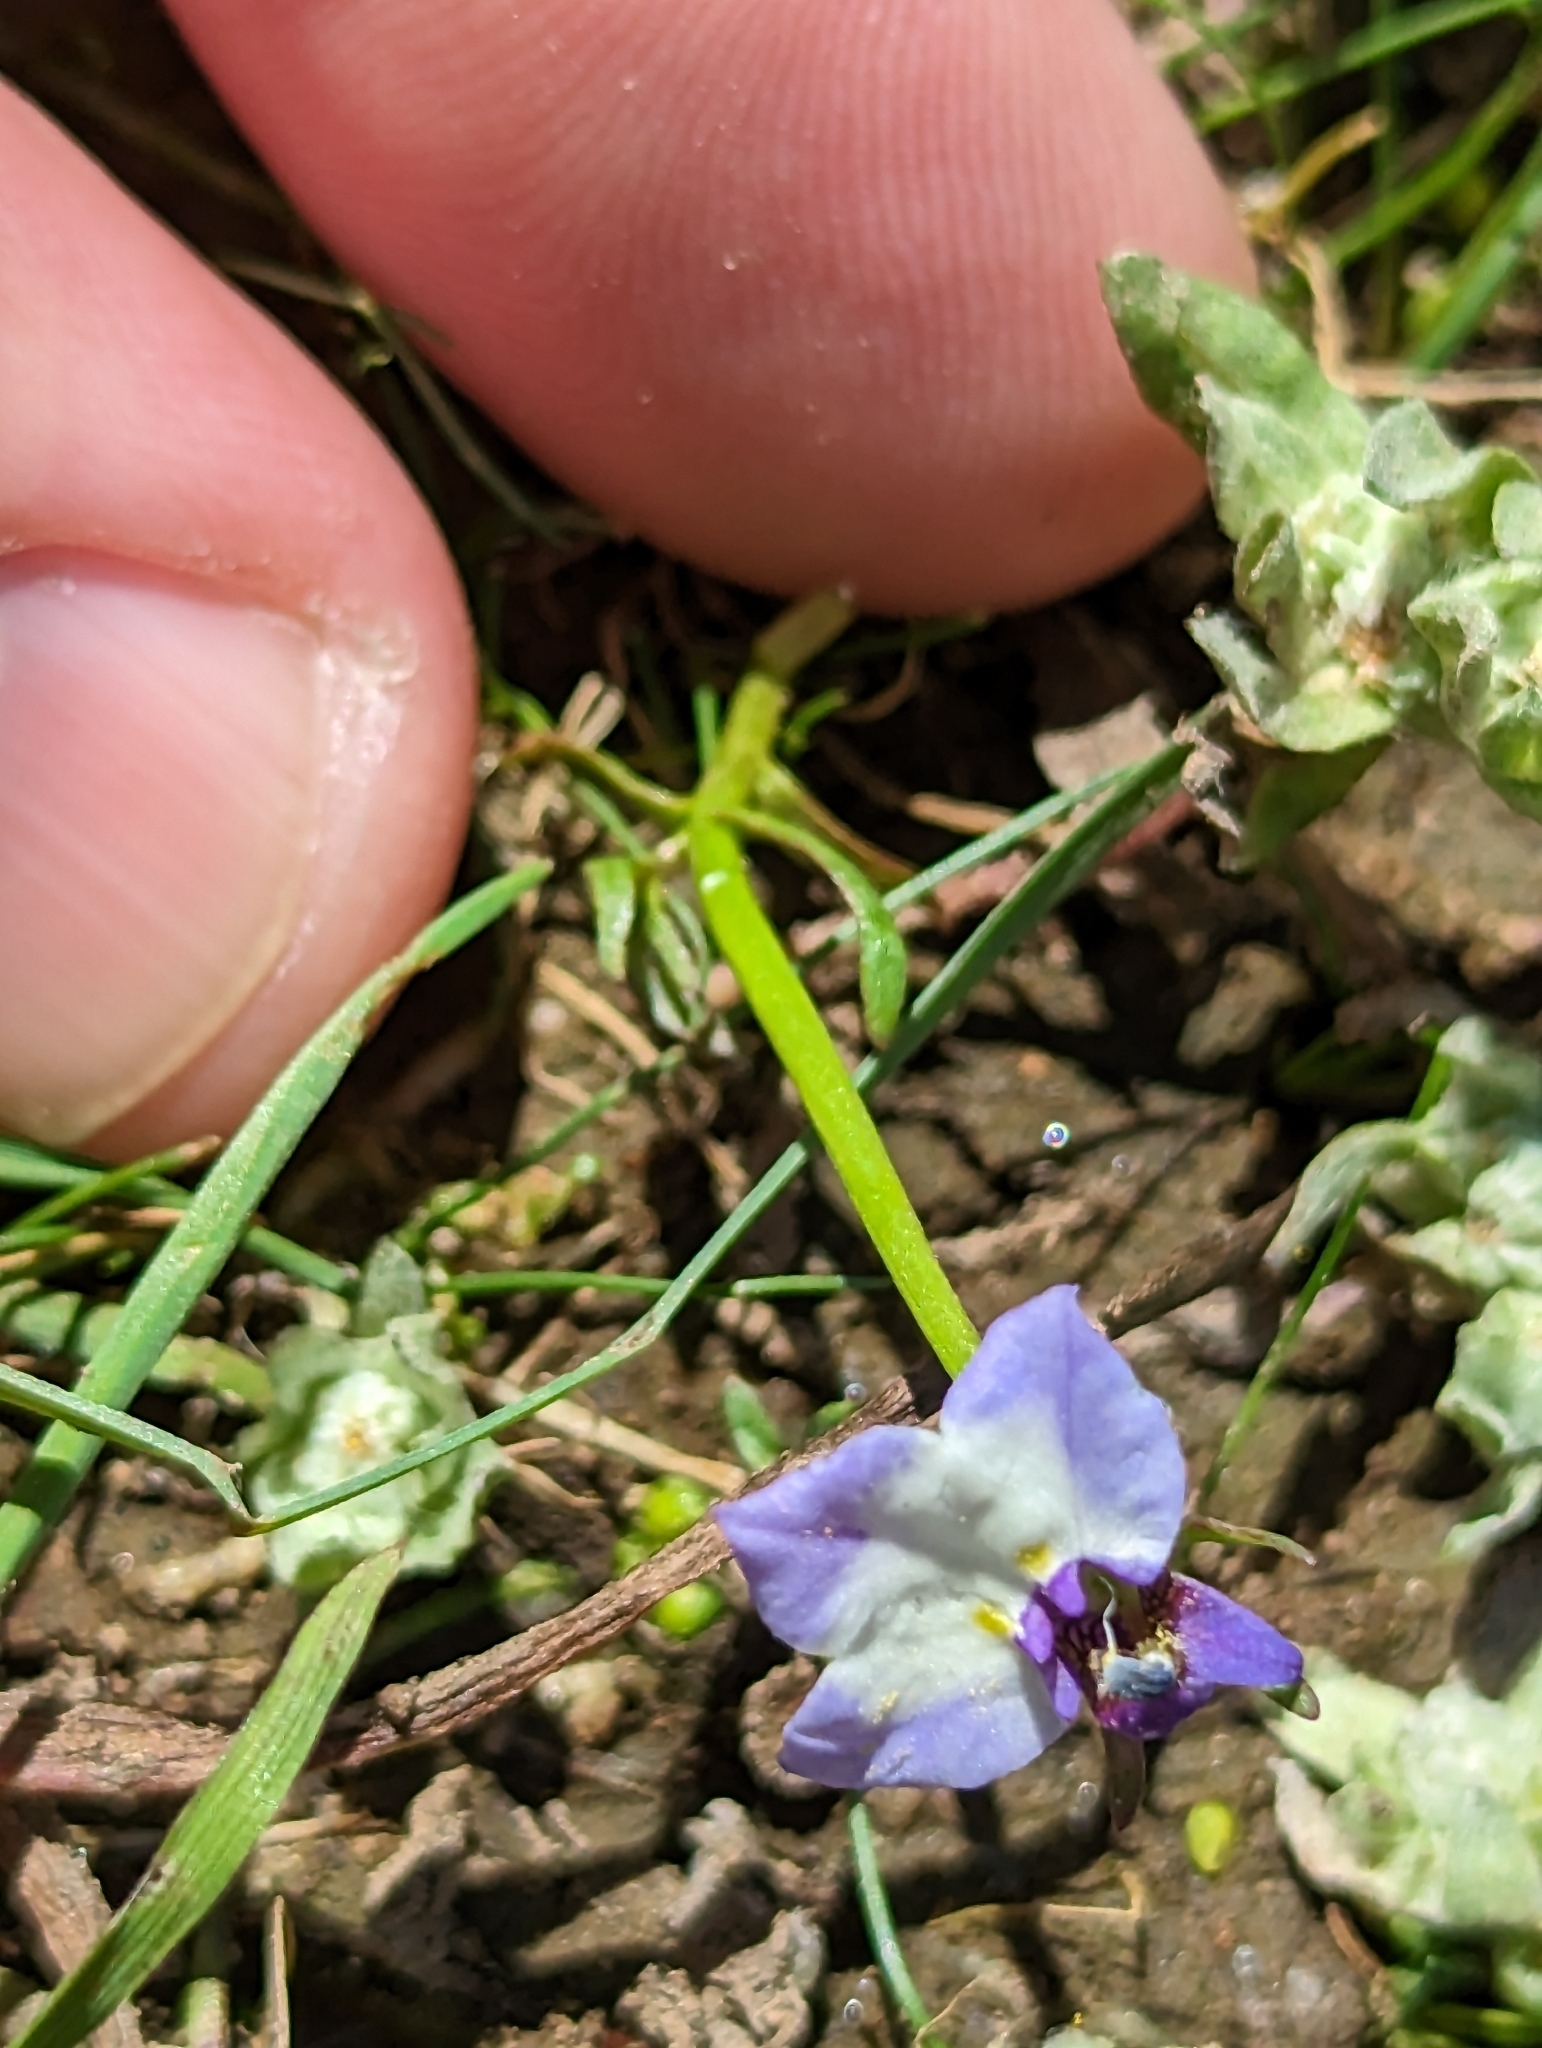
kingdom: Plantae
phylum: Tracheophyta
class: Magnoliopsida
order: Asterales
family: Campanulaceae
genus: Downingia
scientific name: Downingia bicornuta
